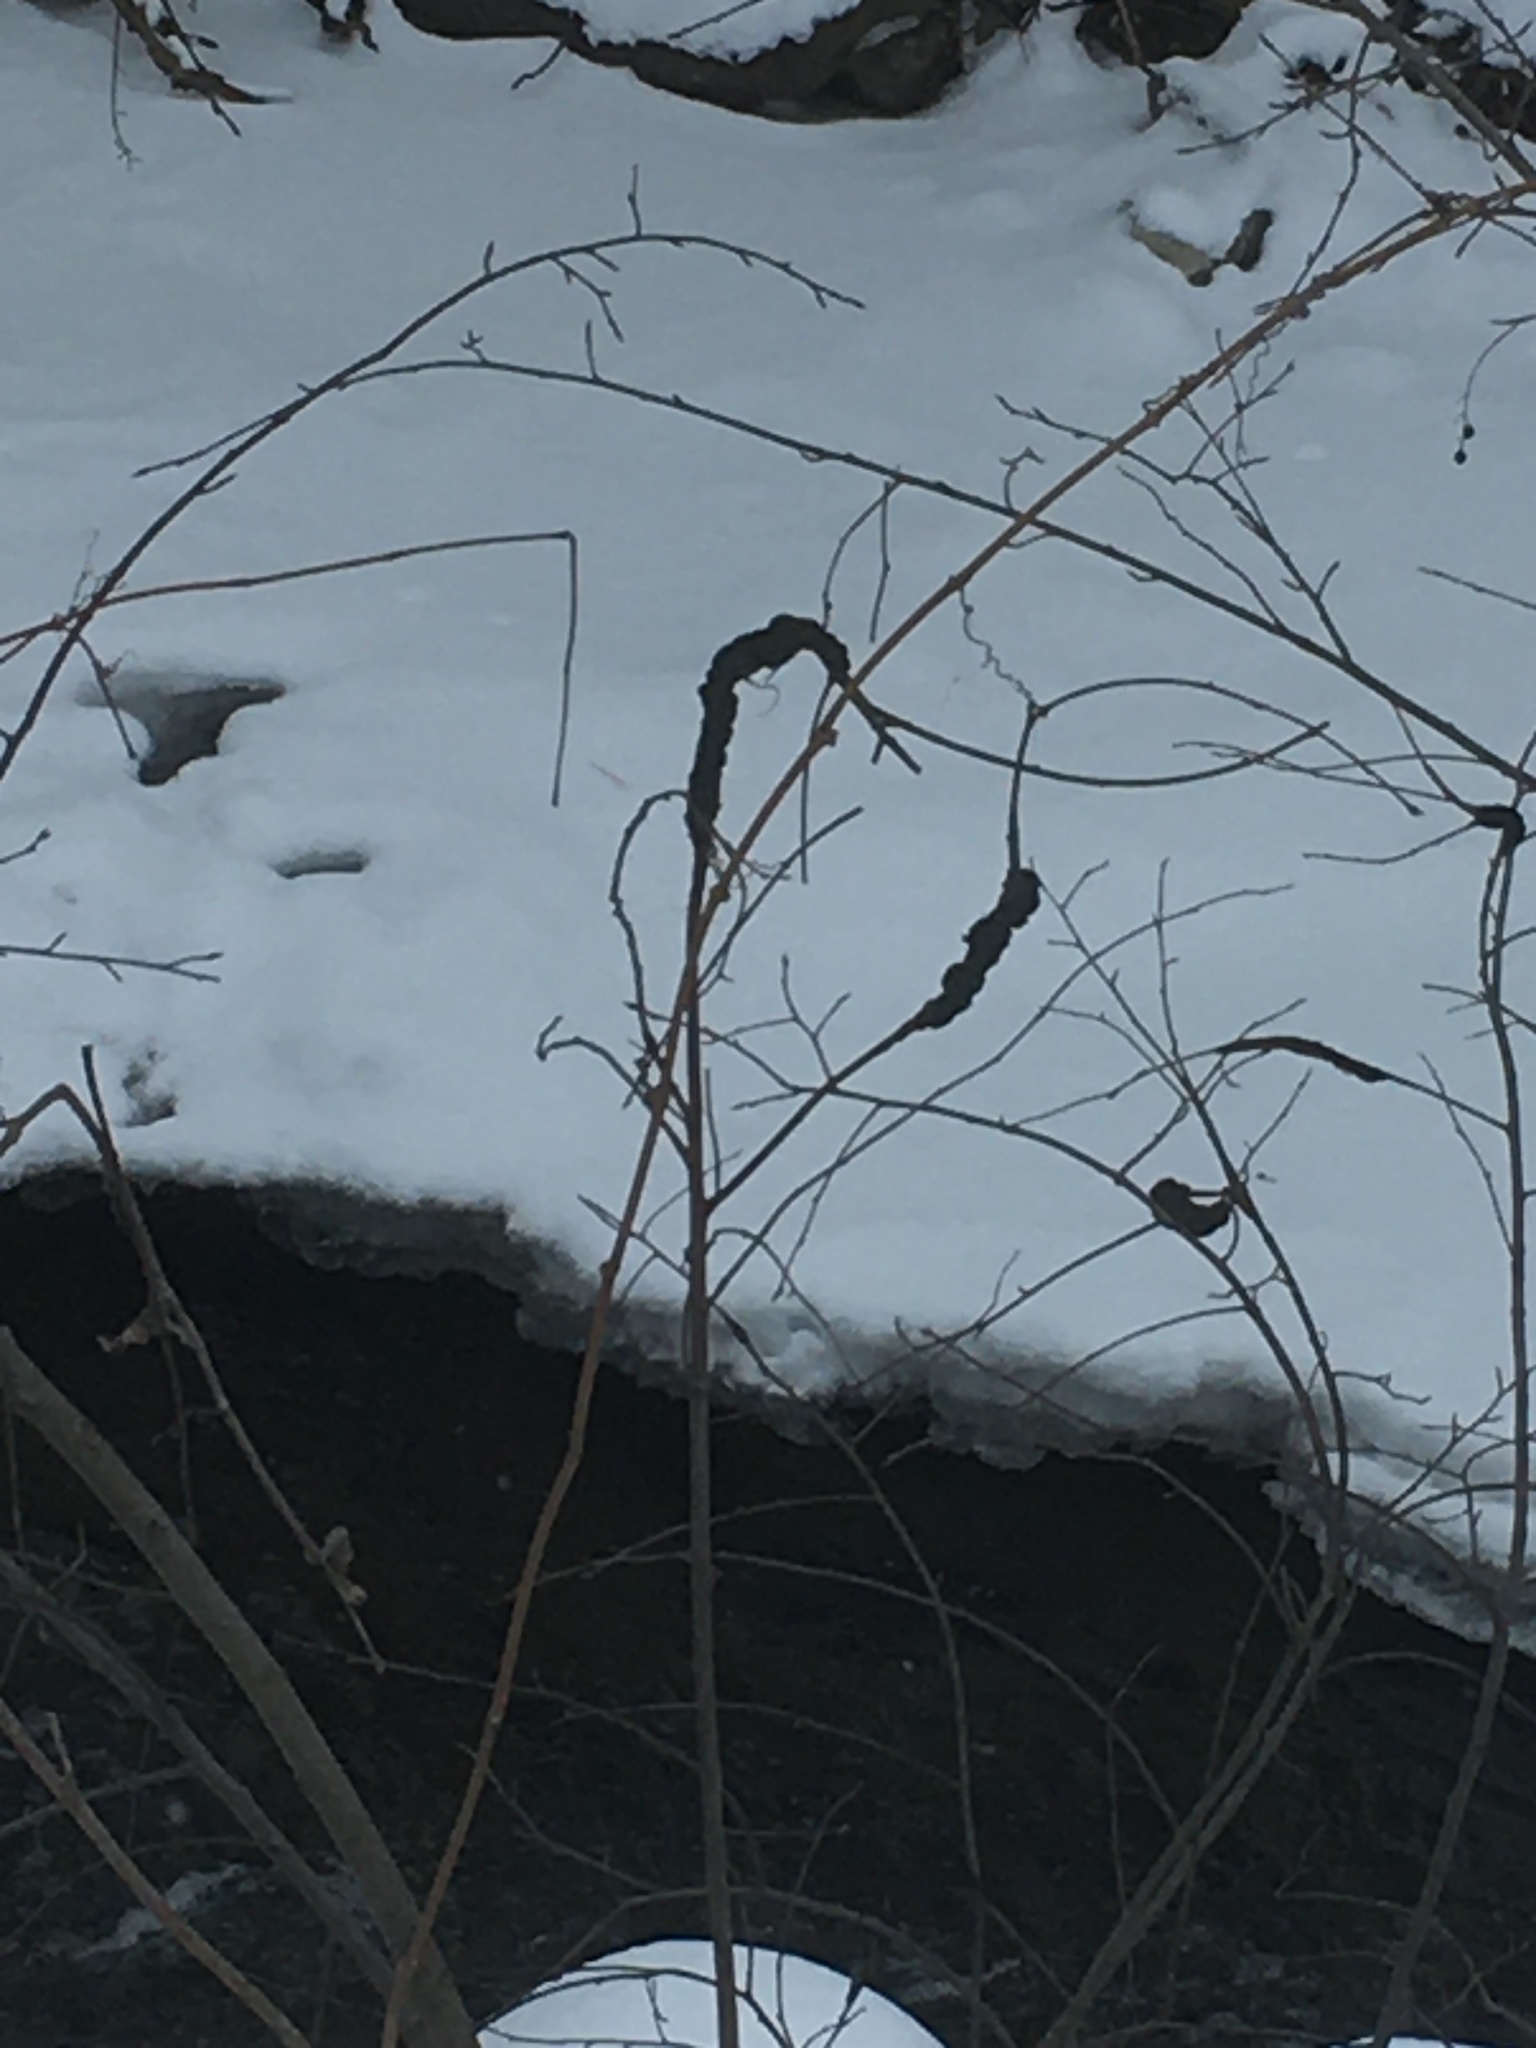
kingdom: Fungi
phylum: Ascomycota
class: Dothideomycetes
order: Venturiales
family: Venturiaceae
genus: Apiosporina
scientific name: Apiosporina morbosa
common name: Black knot
